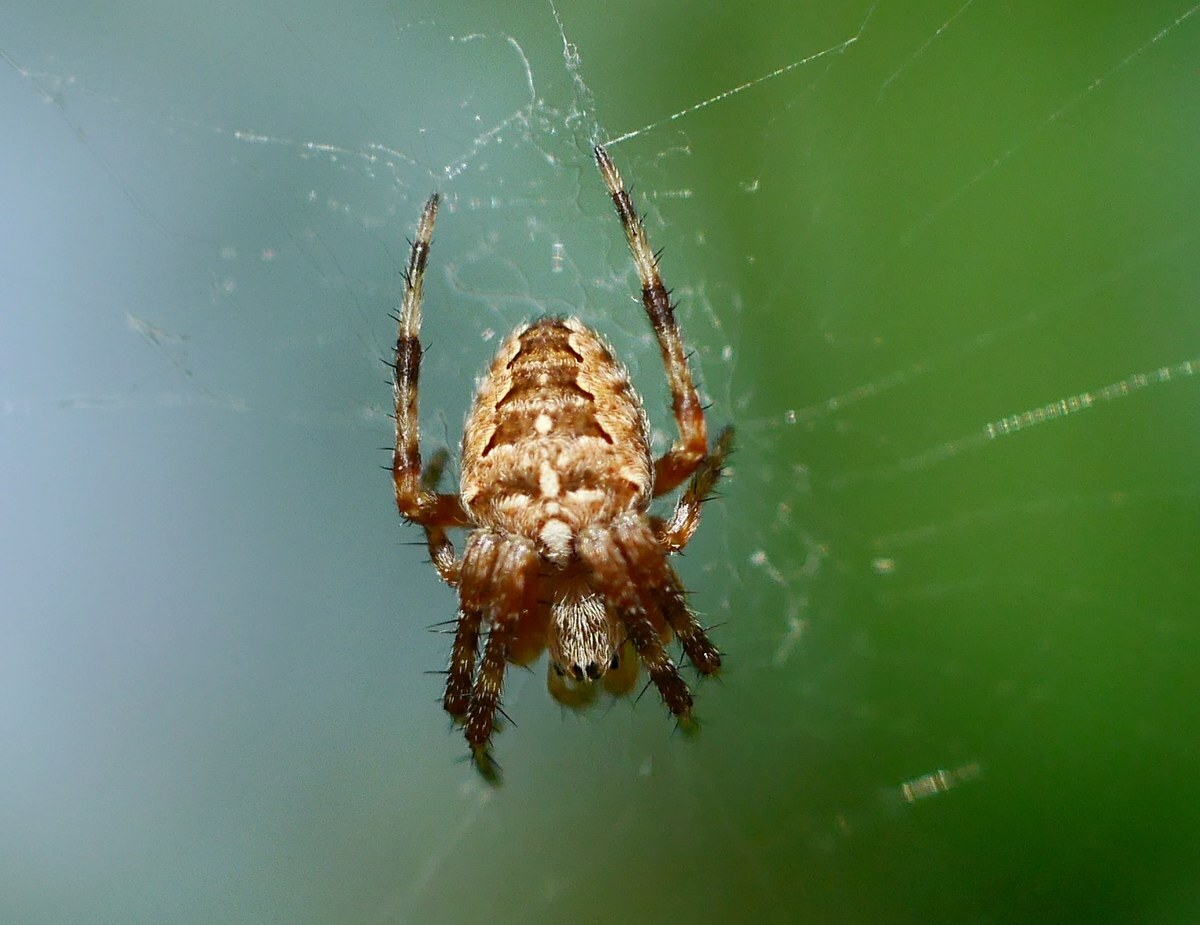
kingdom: Animalia
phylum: Arthropoda
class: Arachnida
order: Araneae
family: Araneidae
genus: Araneus
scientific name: Araneus diadematus
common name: Cross orbweaver
